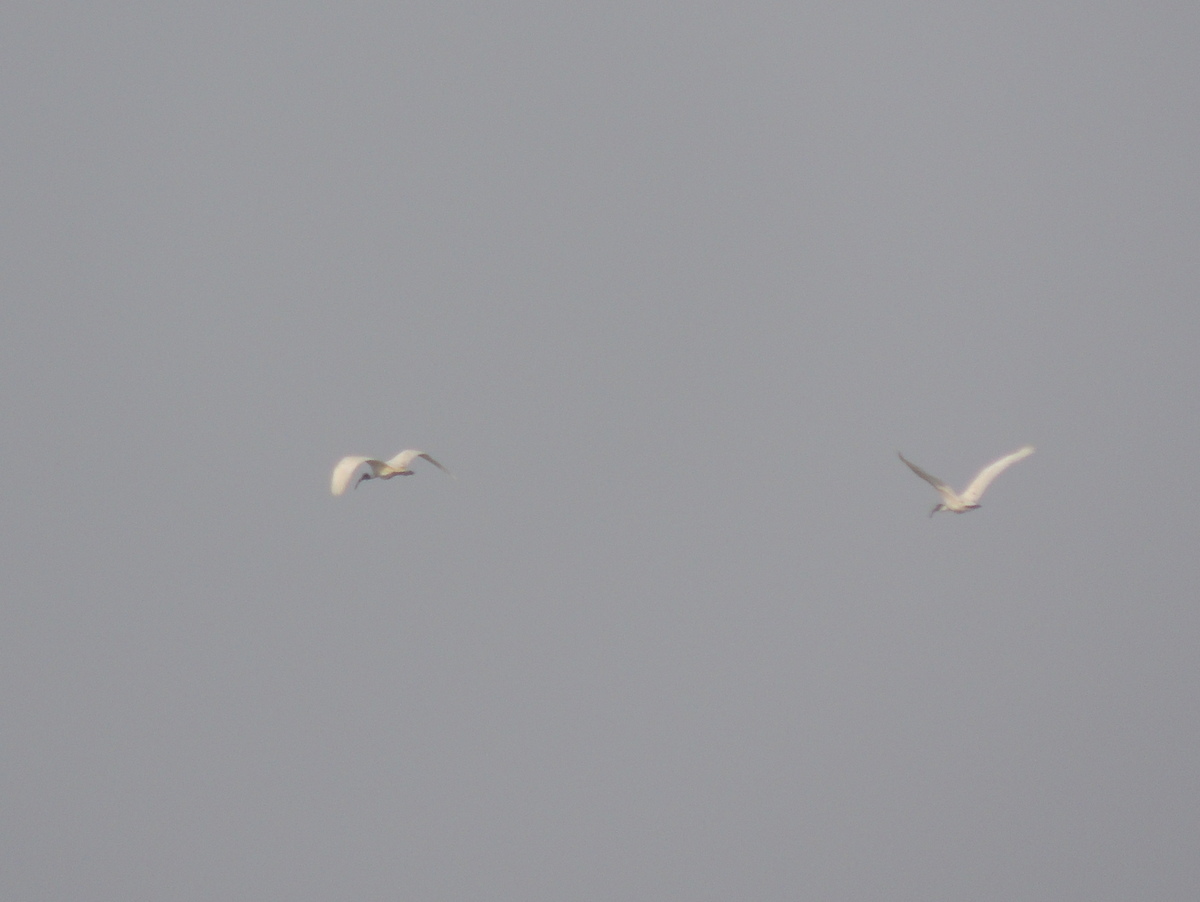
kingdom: Animalia
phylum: Chordata
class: Aves
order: Pelecaniformes
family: Threskiornithidae
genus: Threskiornis
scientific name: Threskiornis melanocephalus
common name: Black-headed ibis
